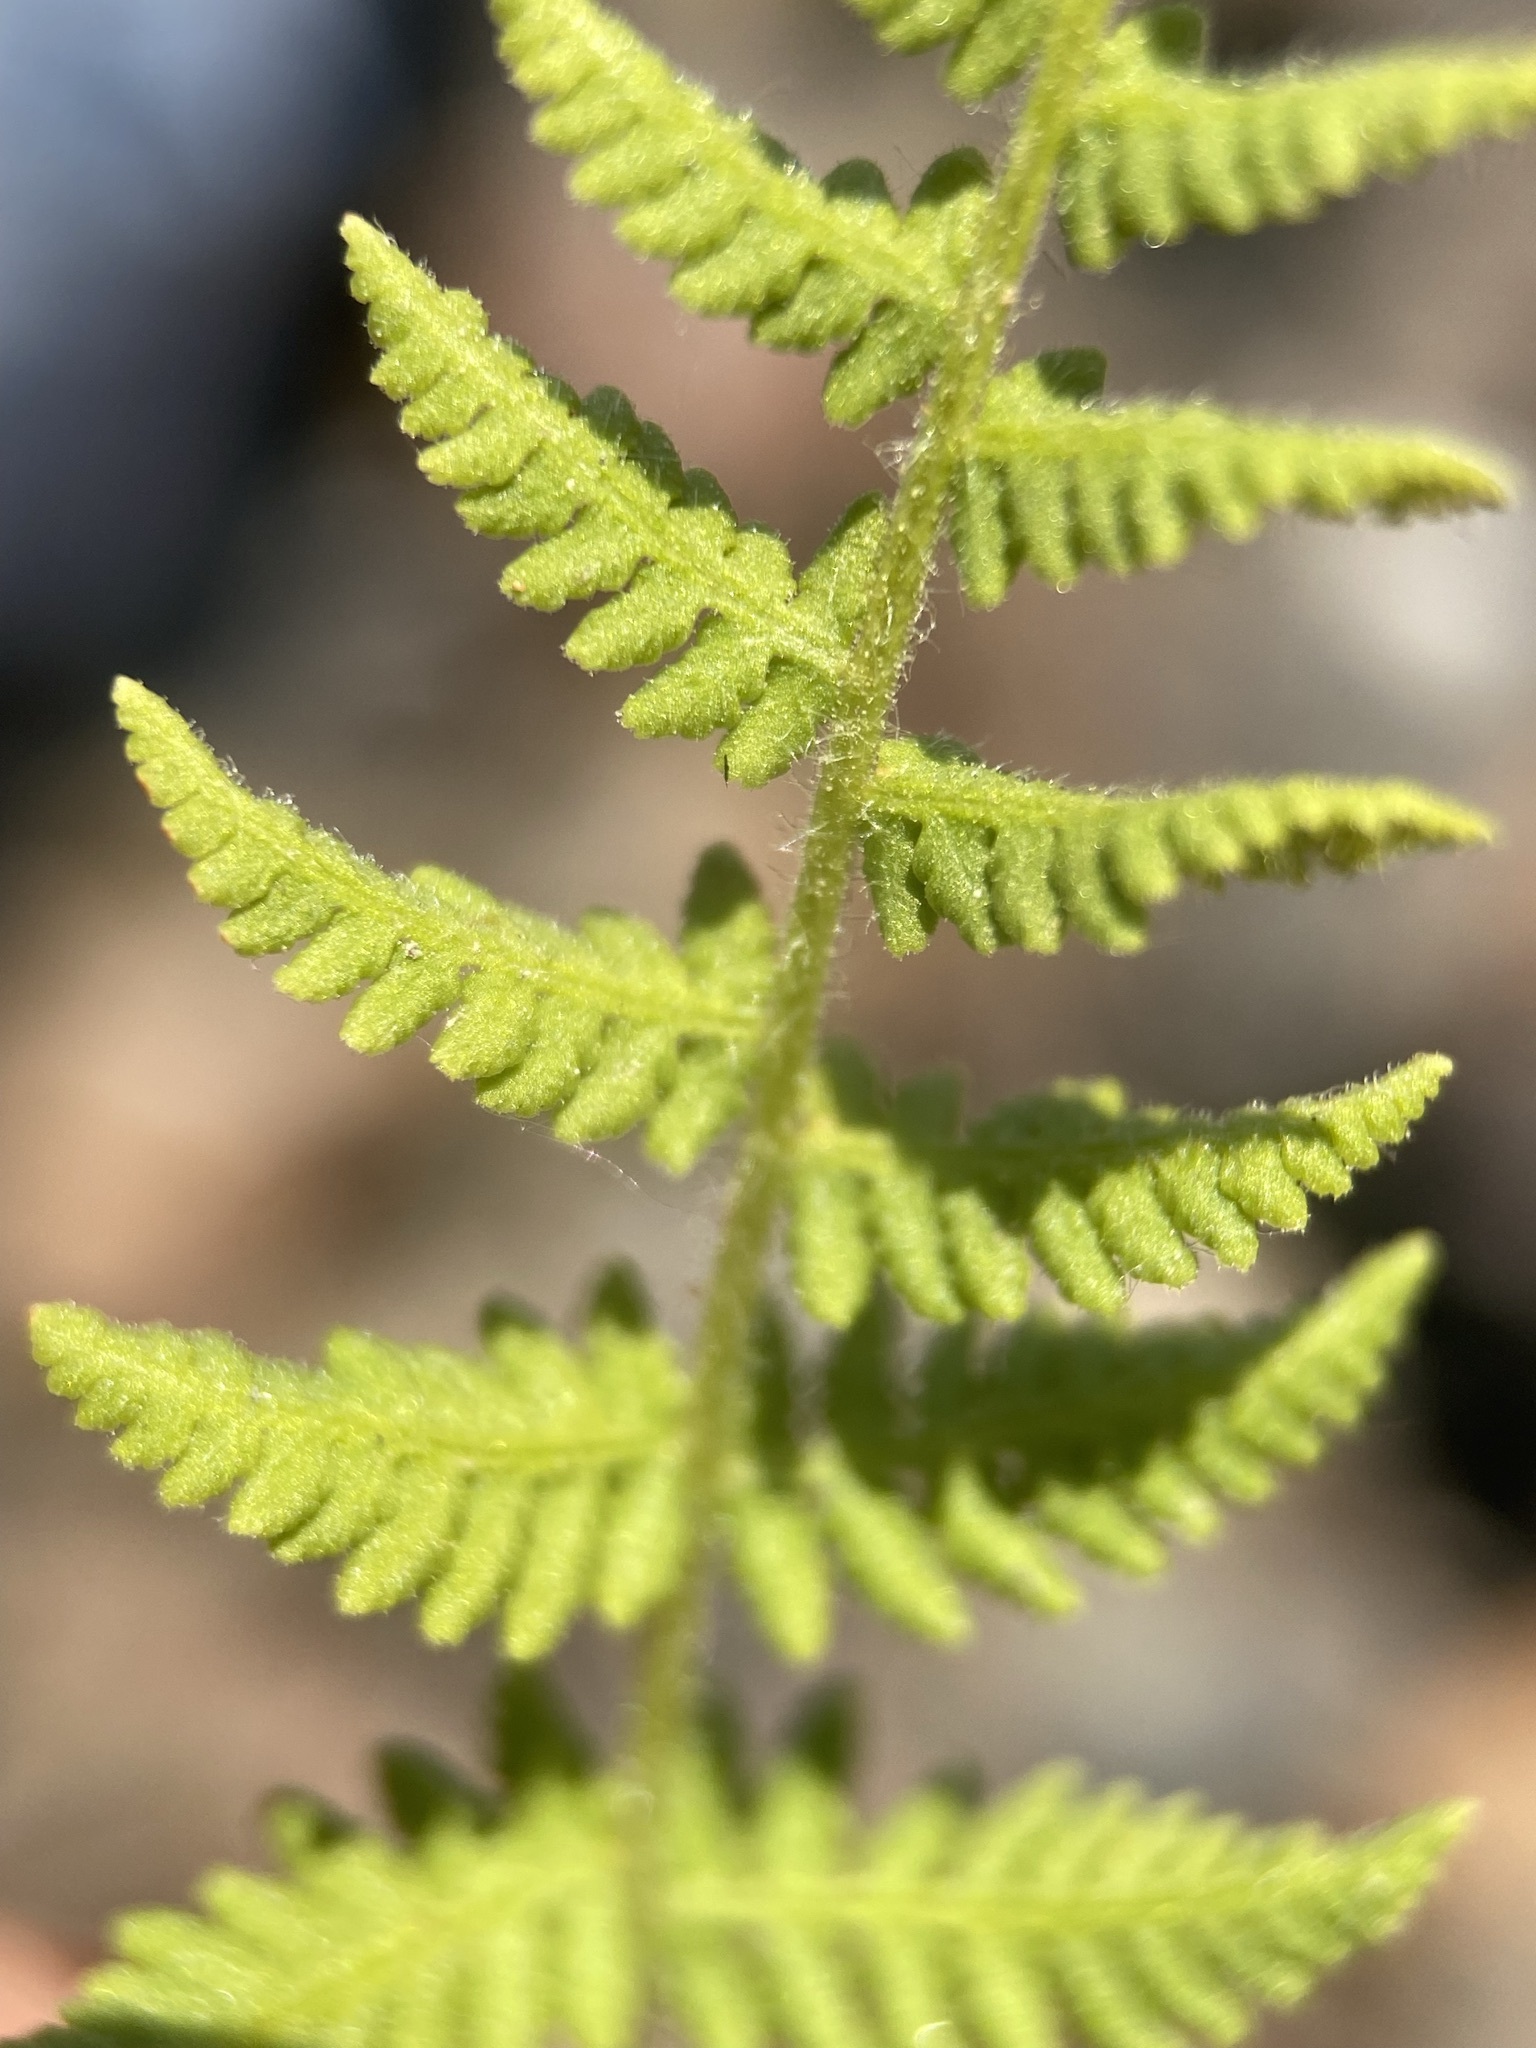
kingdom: Plantae
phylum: Tracheophyta
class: Polypodiopsida
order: Polypodiales
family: Woodsiaceae
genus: Physematium
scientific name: Physematium scopulinum
